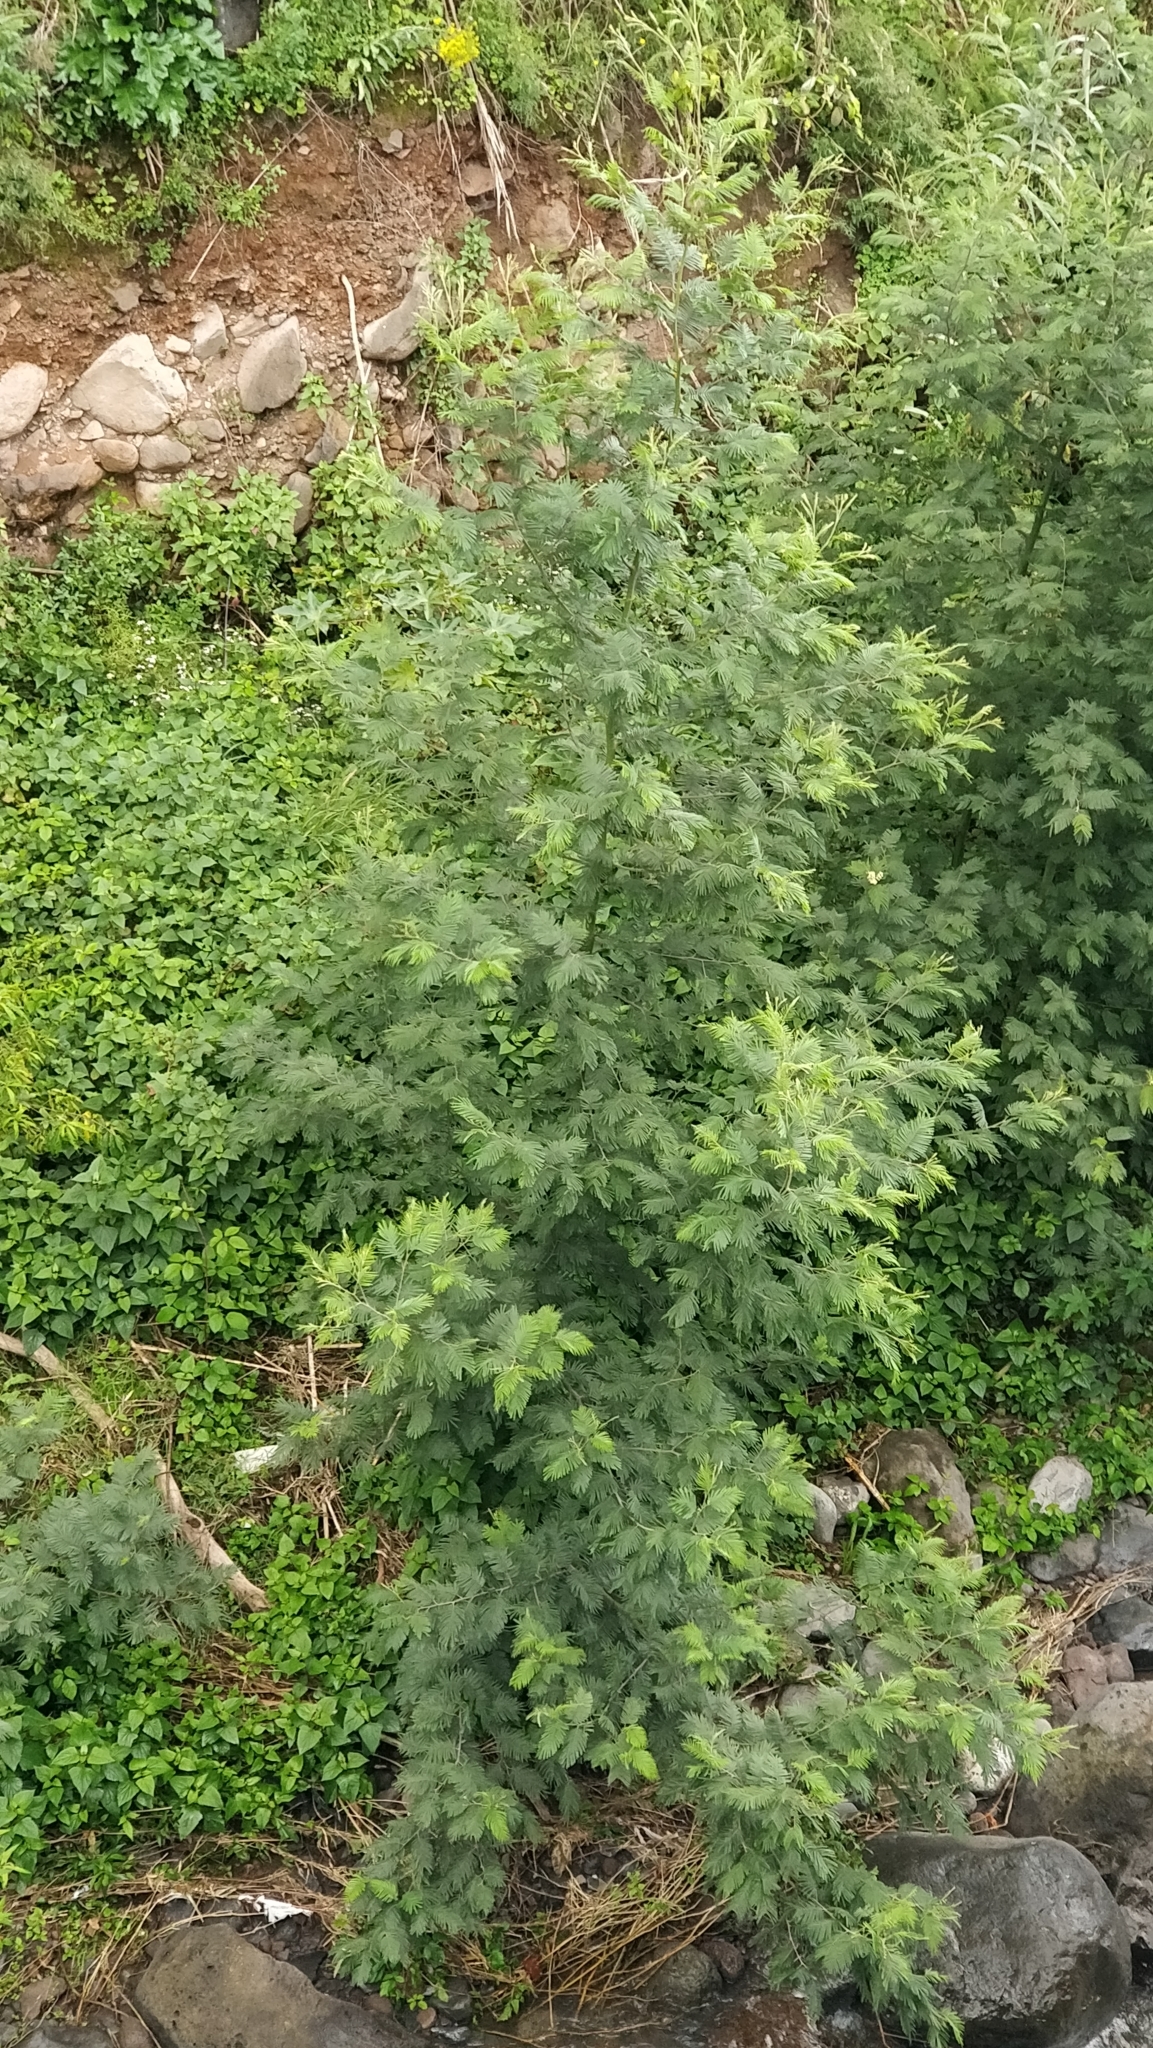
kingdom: Plantae
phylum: Tracheophyta
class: Magnoliopsida
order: Fabales
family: Fabaceae
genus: Acacia
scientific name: Acacia mearnsii
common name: Black wattle
